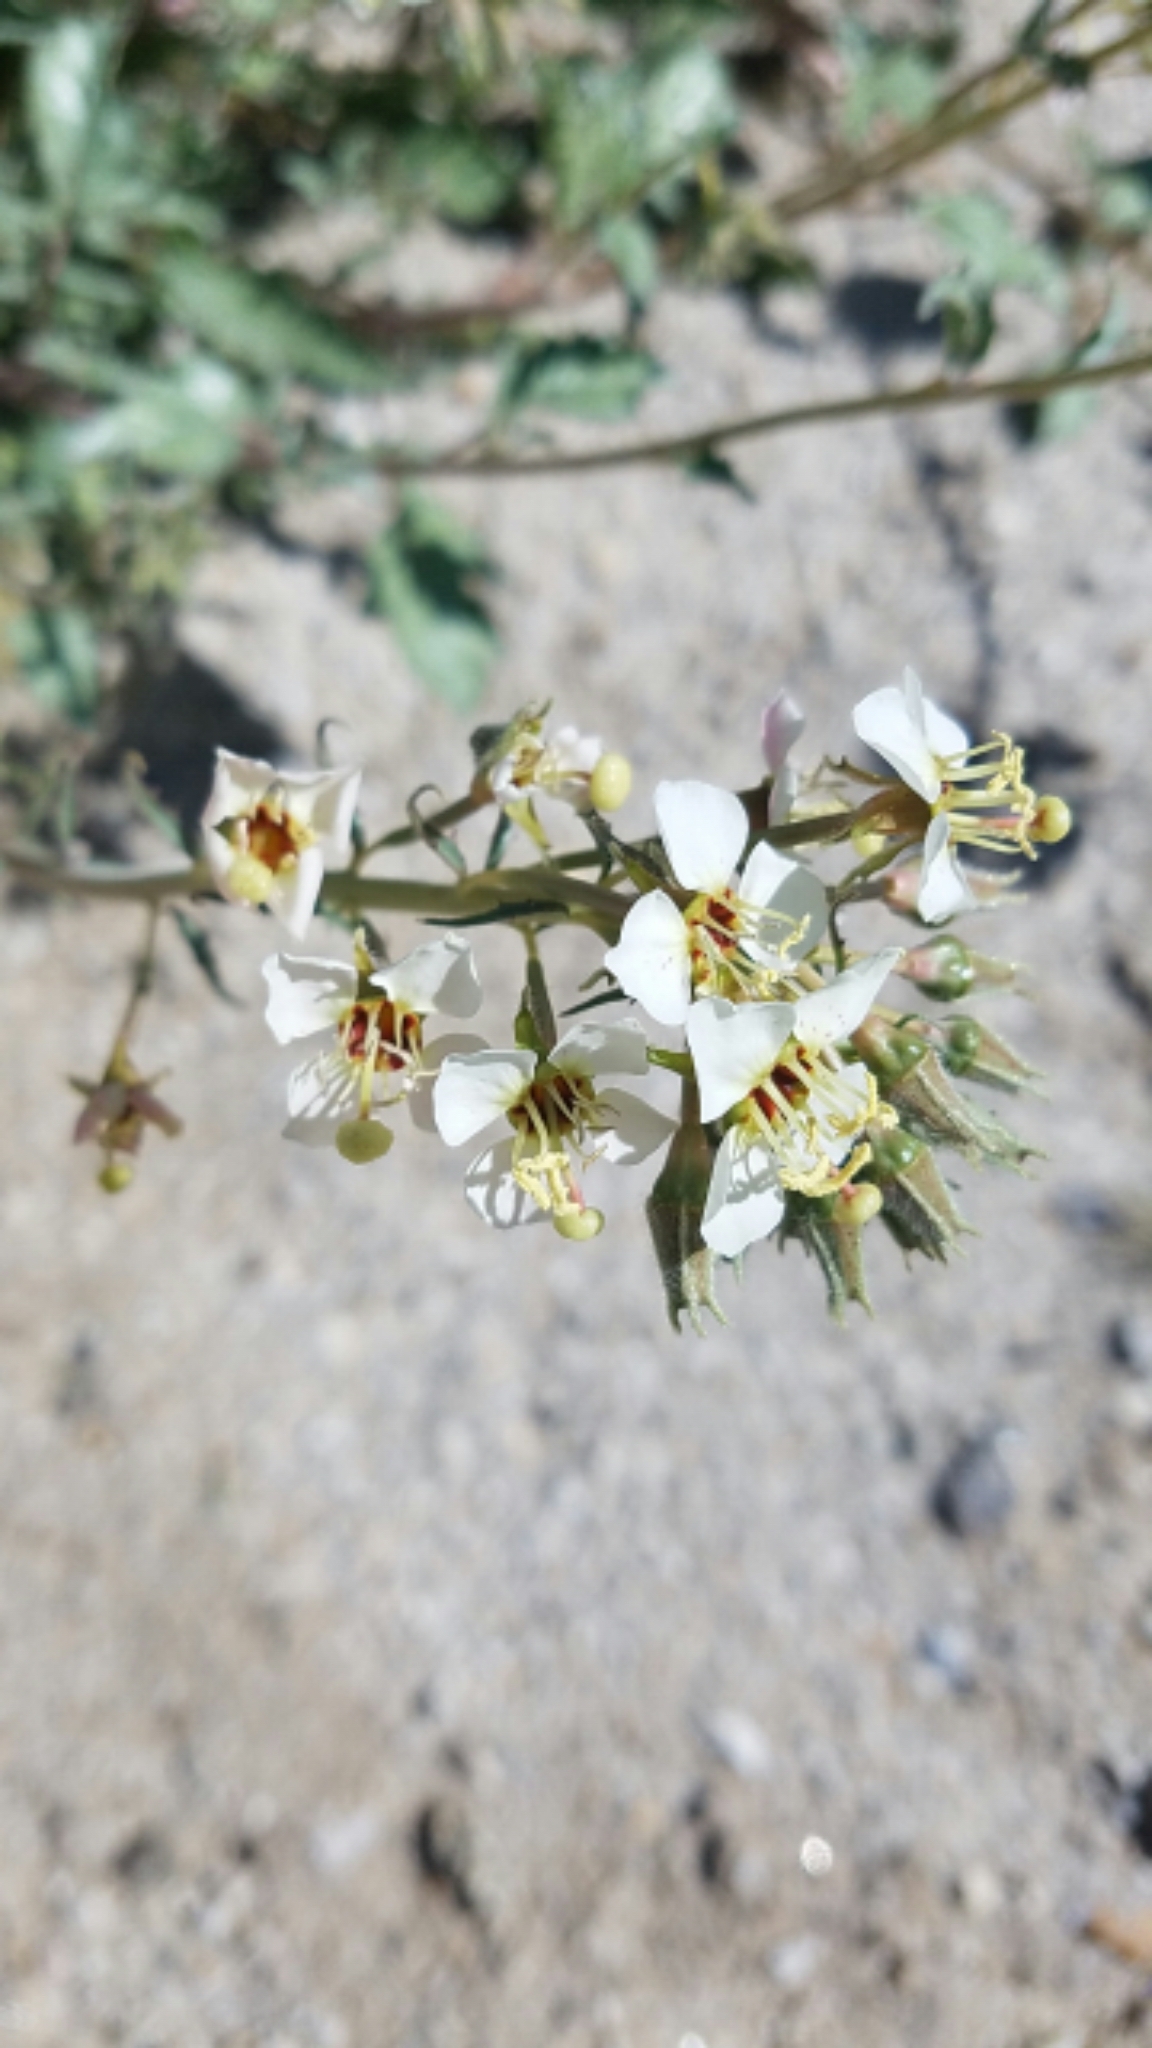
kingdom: Plantae
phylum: Tracheophyta
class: Magnoliopsida
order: Myrtales
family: Onagraceae
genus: Chylismia
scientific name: Chylismia claviformis
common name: Browneyes
